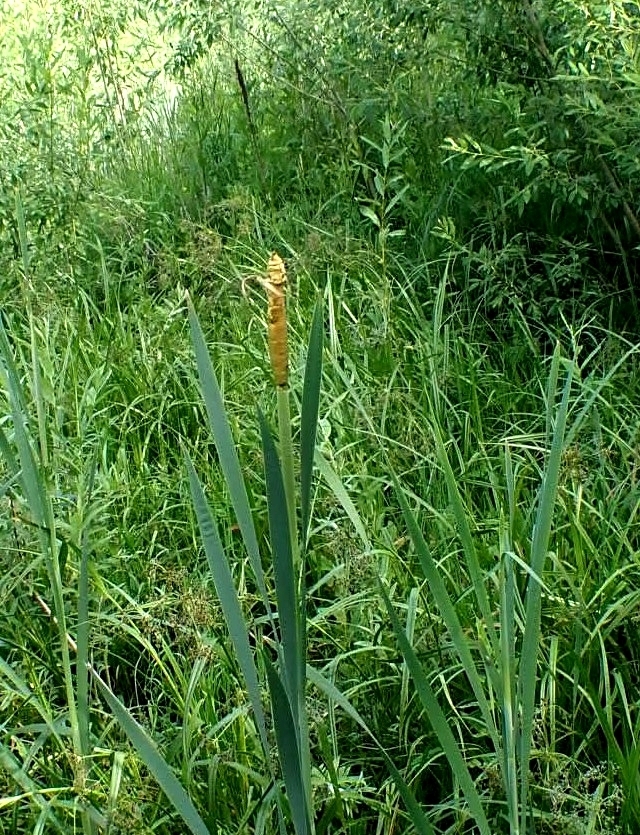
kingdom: Plantae
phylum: Tracheophyta
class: Liliopsida
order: Poales
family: Typhaceae
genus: Typha
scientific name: Typha latifolia
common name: Broadleaf cattail
